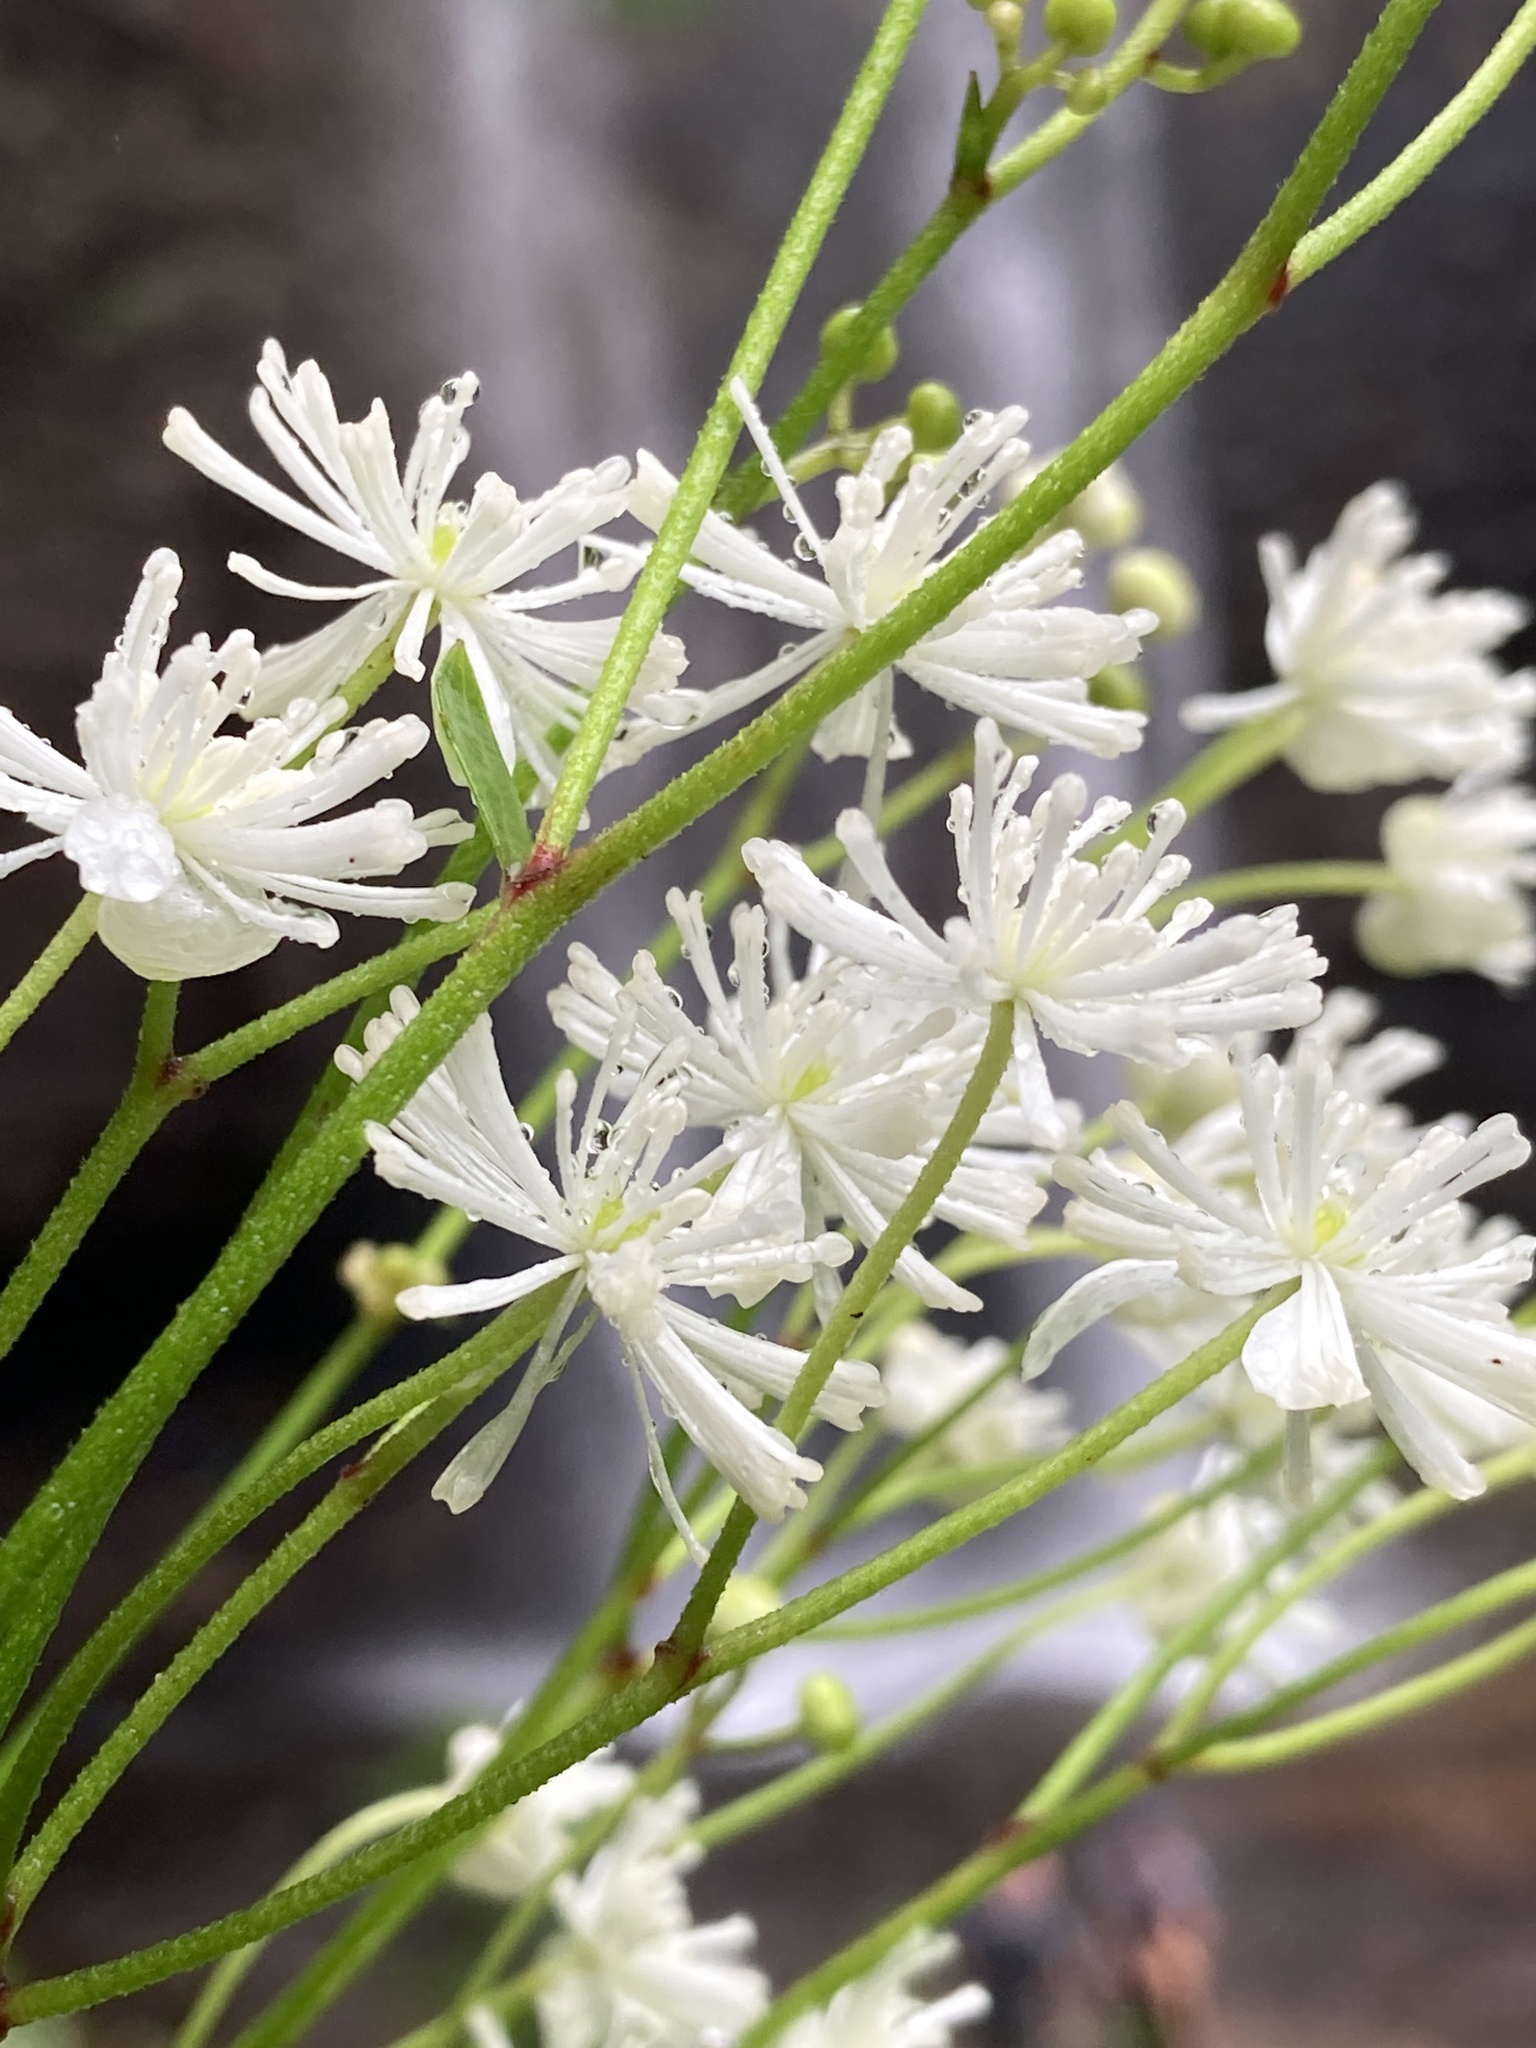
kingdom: Plantae
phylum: Tracheophyta
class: Magnoliopsida
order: Ranunculales
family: Ranunculaceae
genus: Trautvetteria
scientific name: Trautvetteria carolinensis
